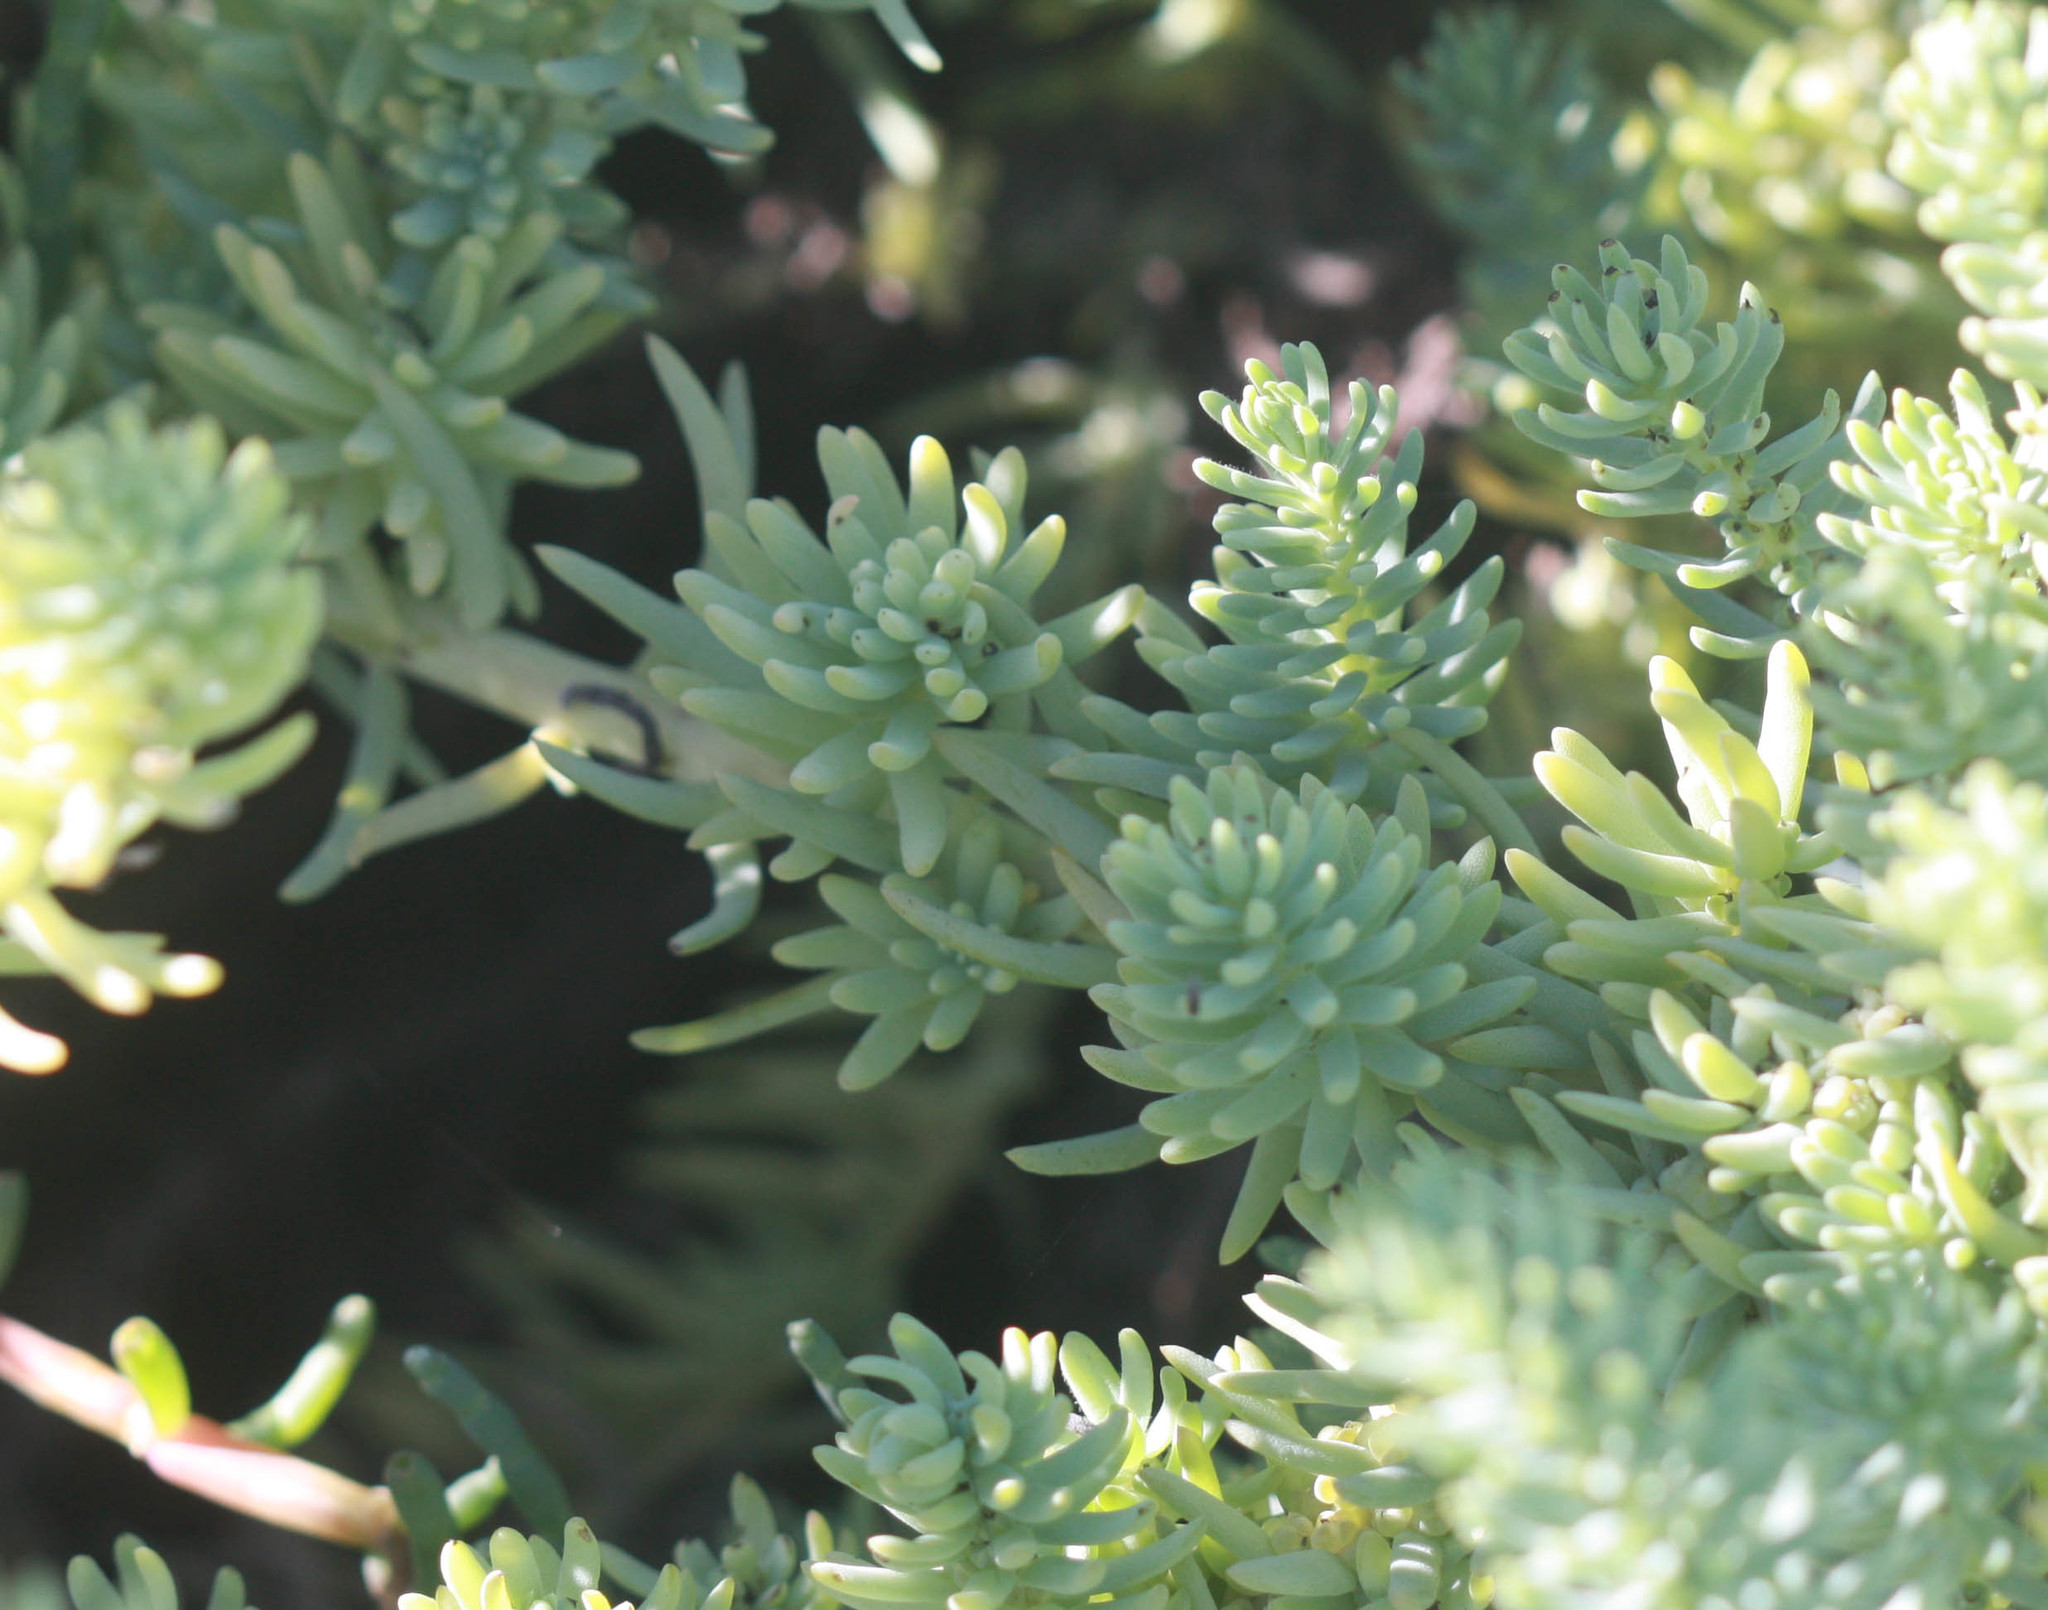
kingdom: Plantae
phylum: Tracheophyta
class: Magnoliopsida
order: Caryophyllales
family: Amaranthaceae
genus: Suaeda
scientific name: Suaeda californica
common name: California sea-blite
